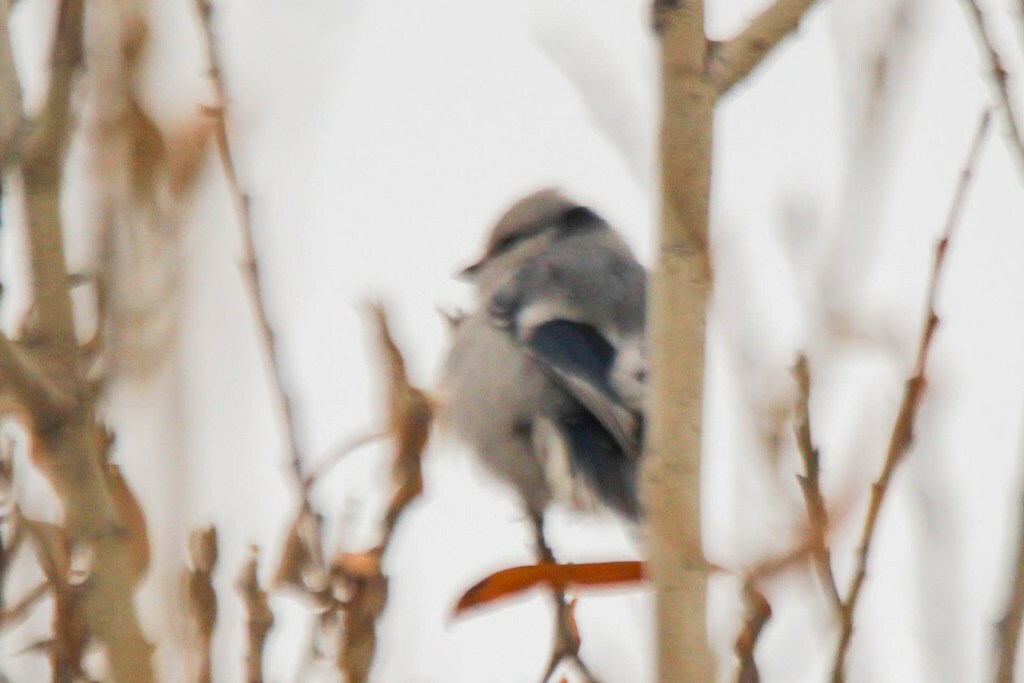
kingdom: Animalia
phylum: Chordata
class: Aves
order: Passeriformes
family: Paridae
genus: Cyanistes
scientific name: Cyanistes cyanus
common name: Azure tit
